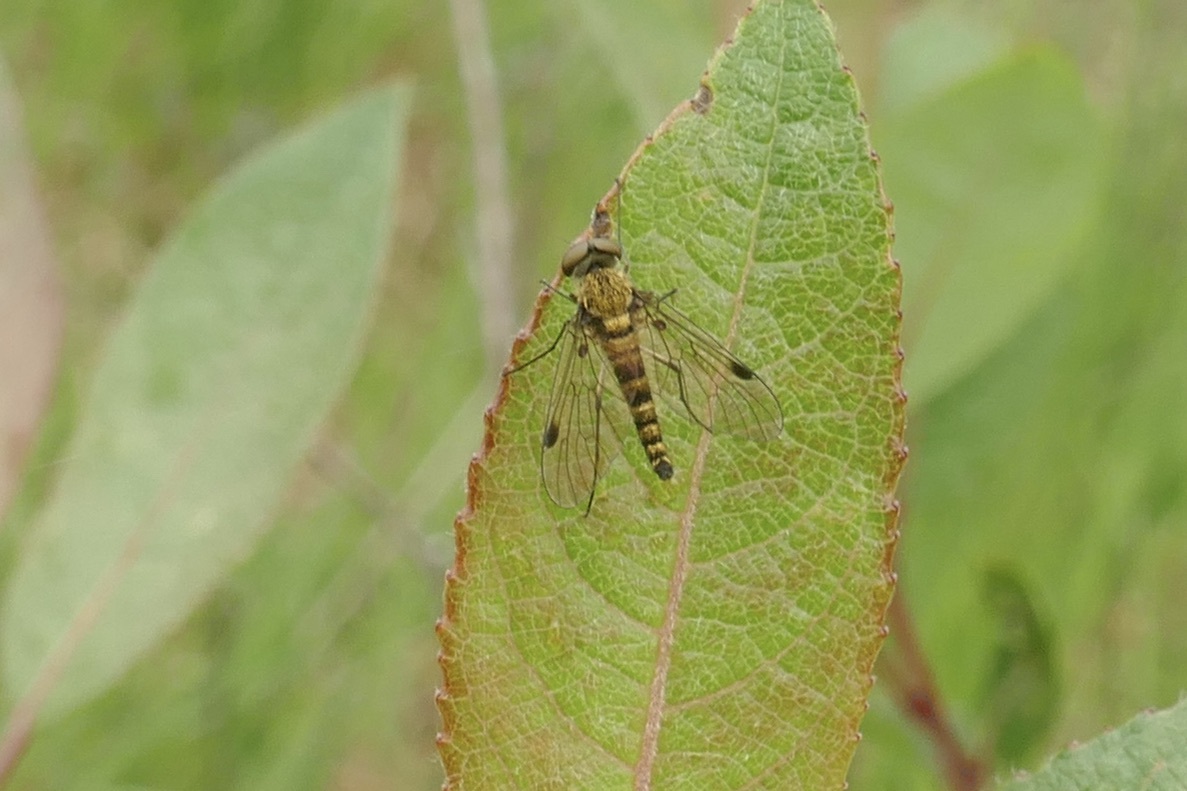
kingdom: Animalia
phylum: Arthropoda
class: Insecta
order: Diptera
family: Rhagionidae
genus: Chrysopilus
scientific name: Chrysopilus asiliformis
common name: Little snipefly
